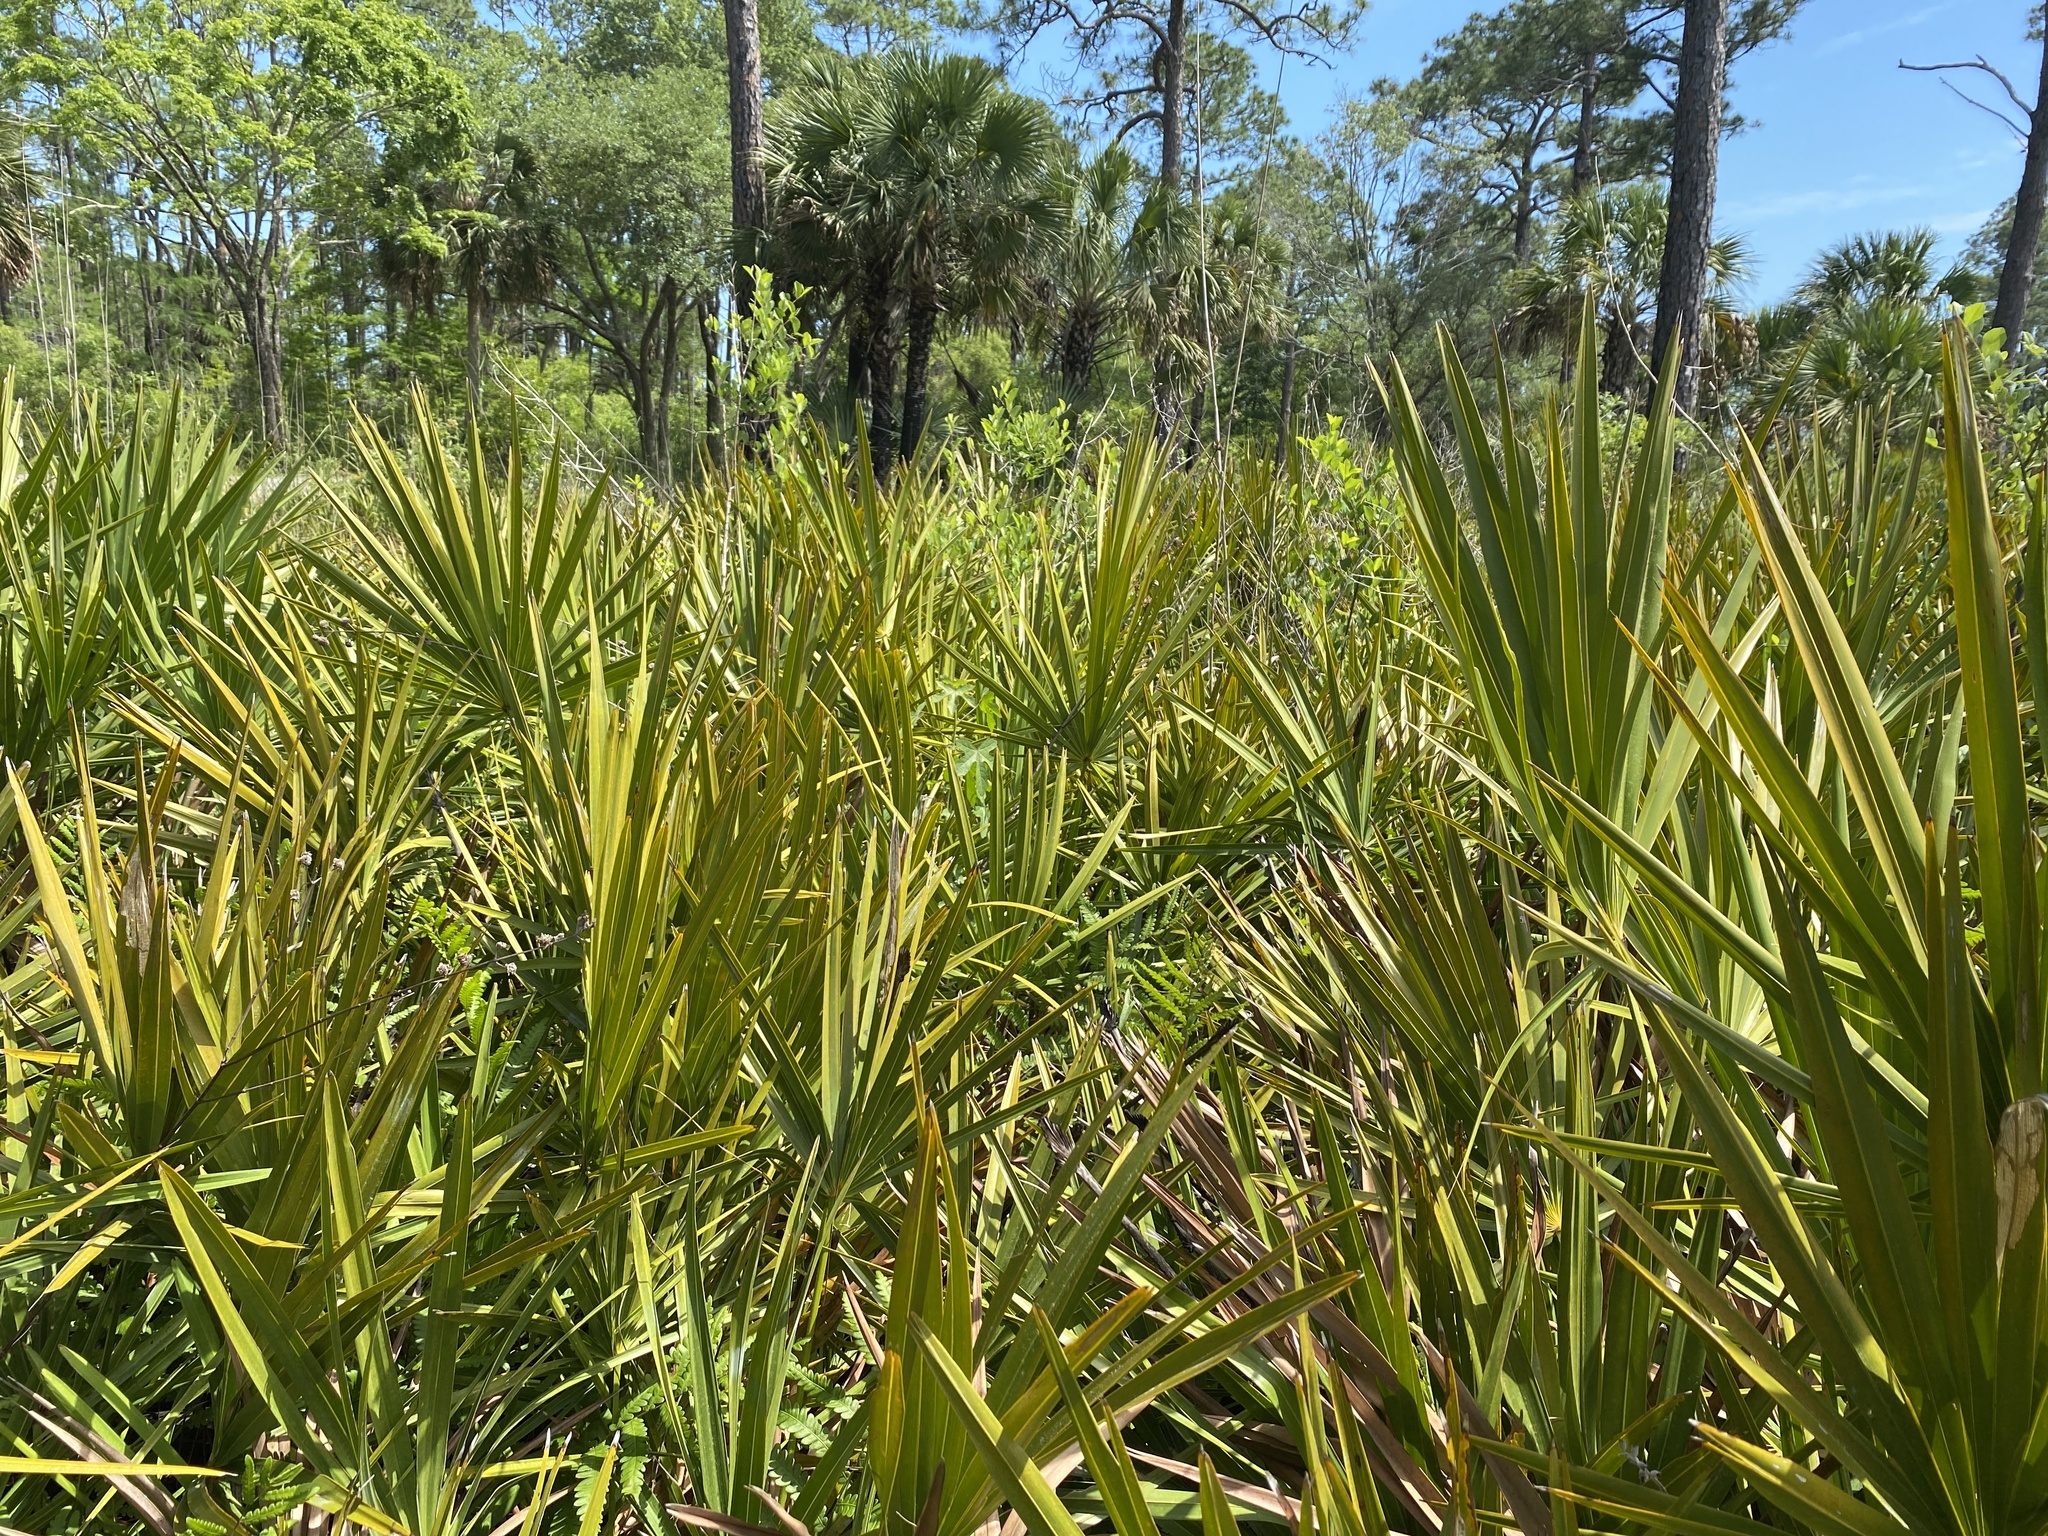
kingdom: Plantae
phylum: Tracheophyta
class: Liliopsida
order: Arecales
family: Arecaceae
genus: Serenoa
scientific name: Serenoa repens
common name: Saw-palmetto
